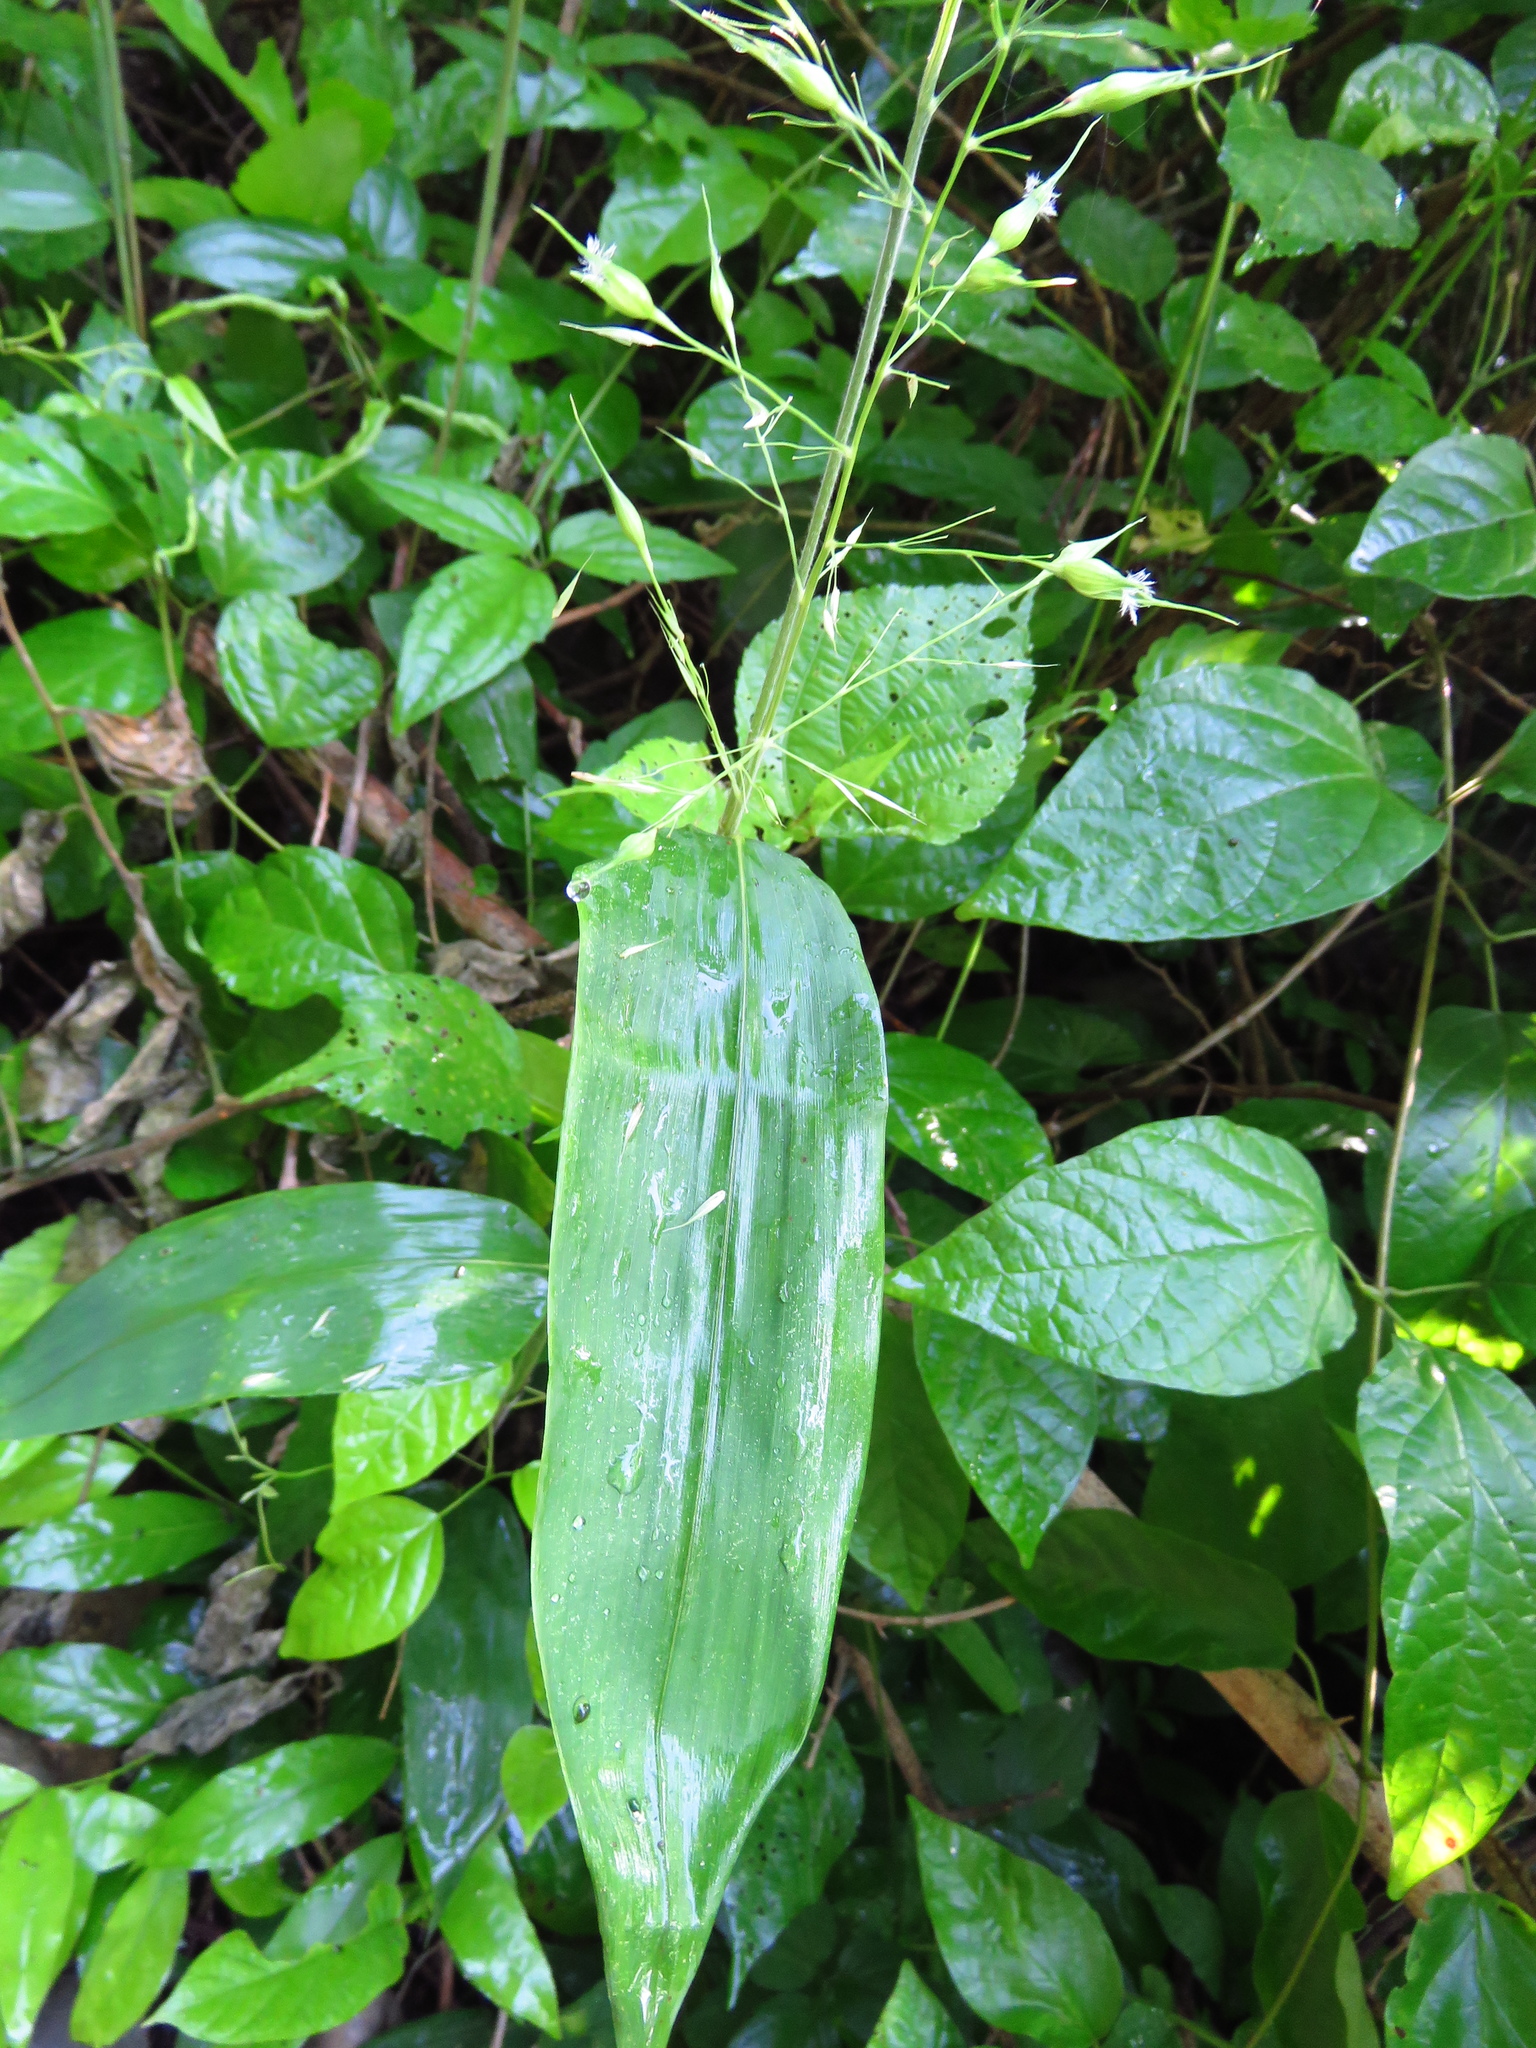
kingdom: Plantae
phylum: Tracheophyta
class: Liliopsida
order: Poales
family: Poaceae
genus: Olyra
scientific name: Olyra latifolia
